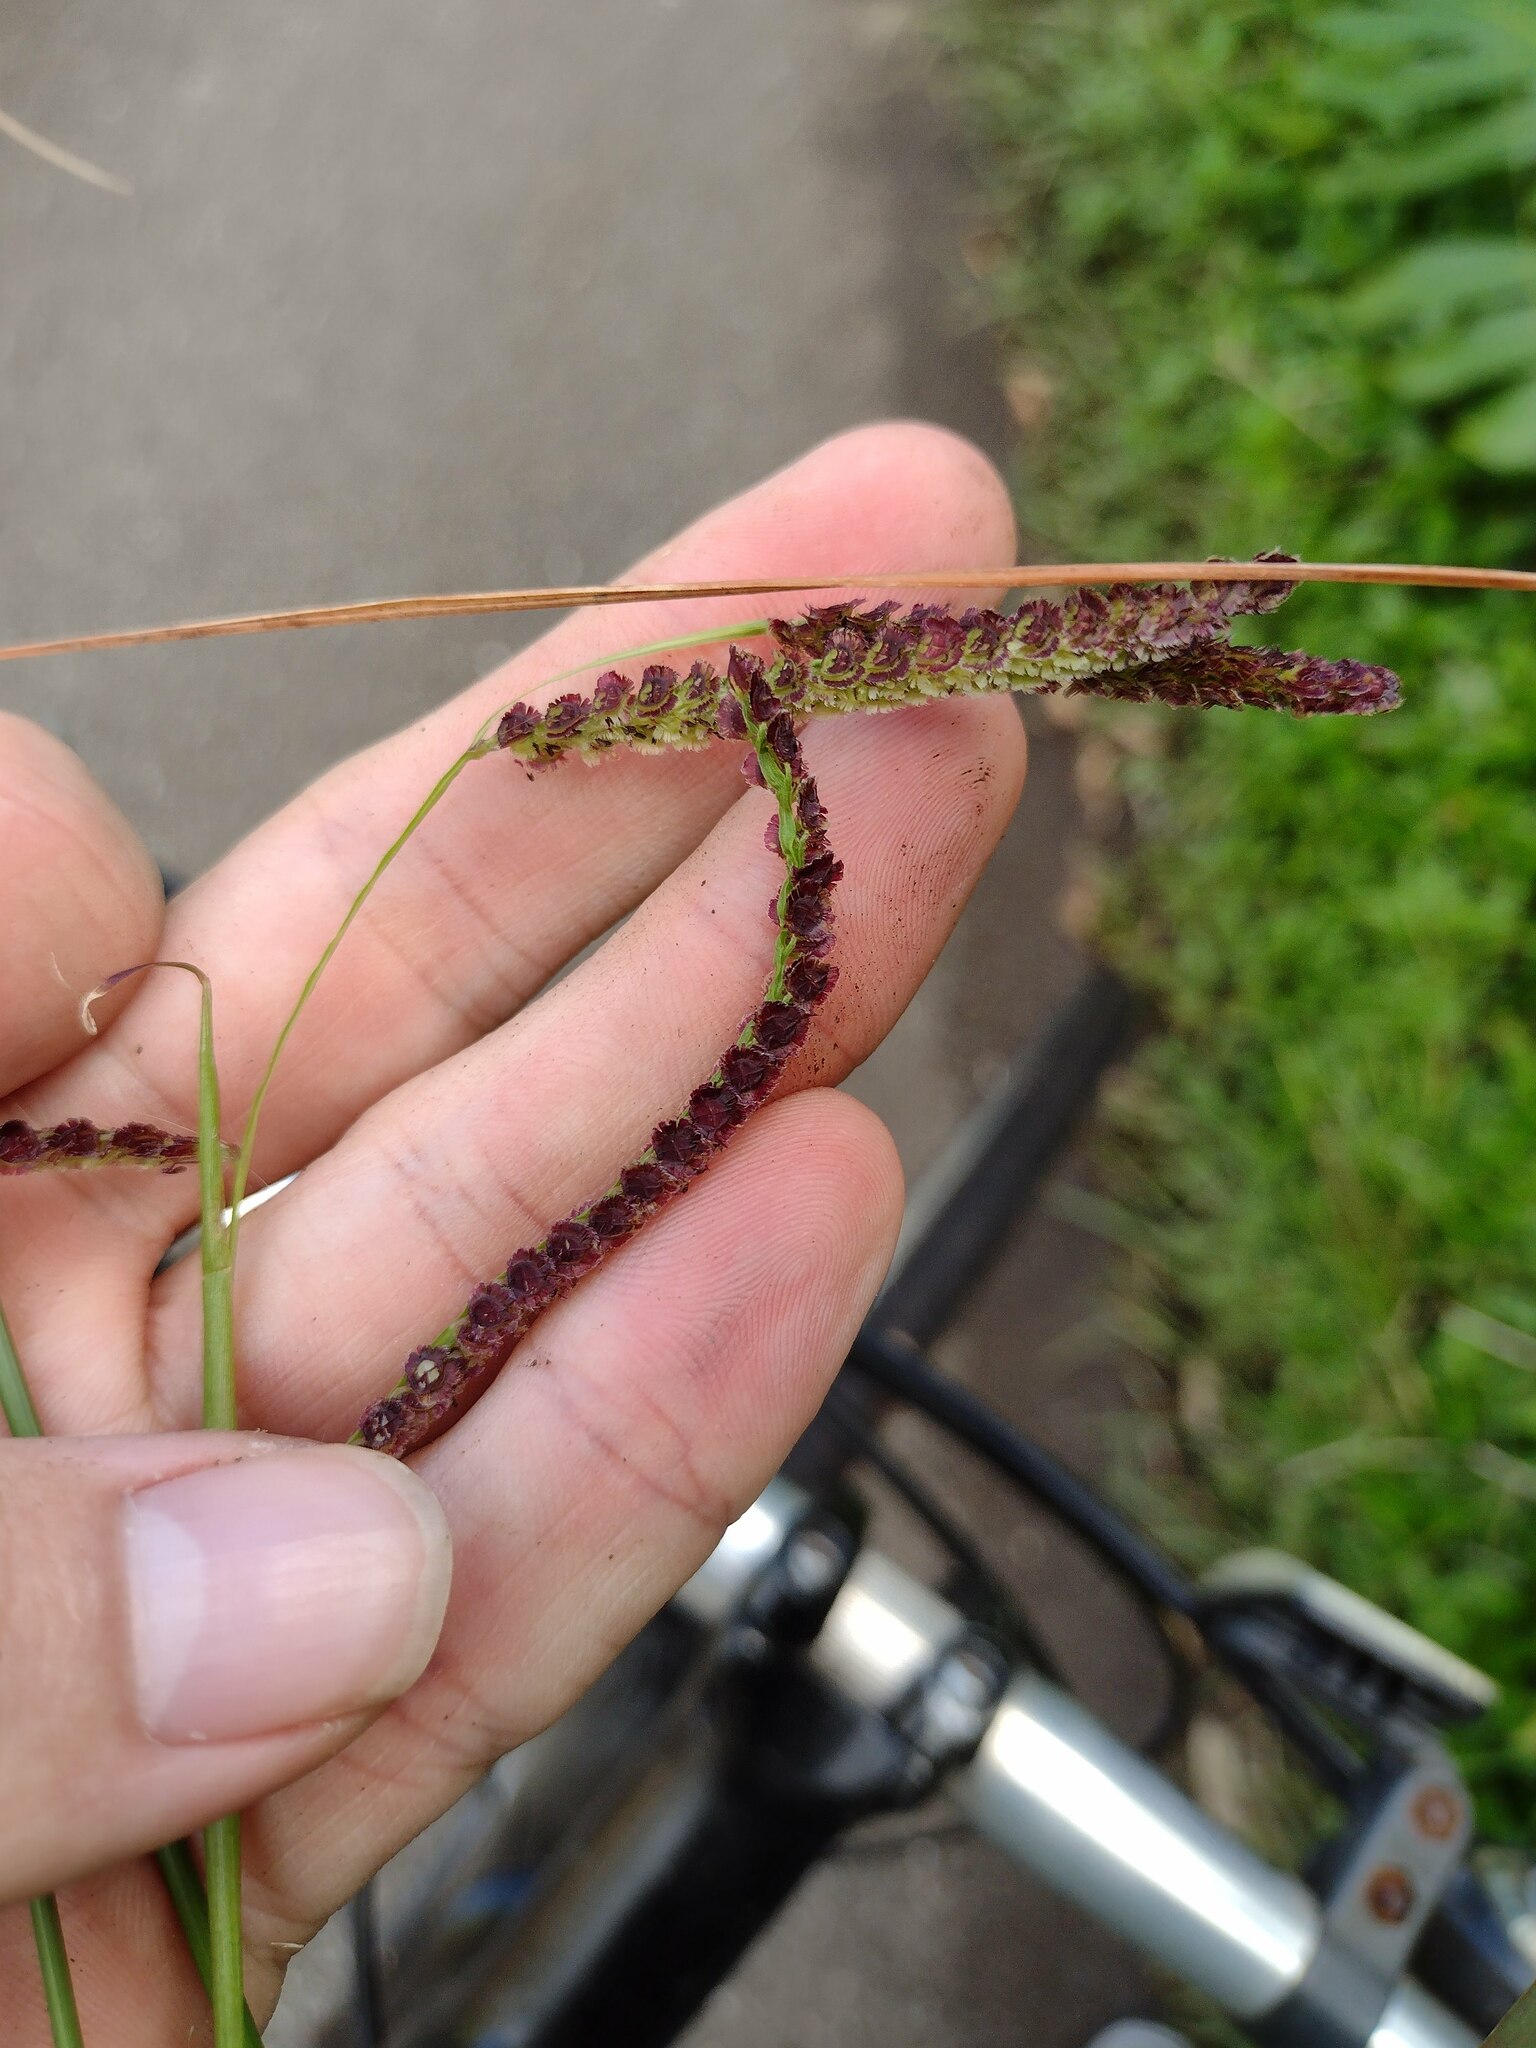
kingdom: Plantae
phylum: Tracheophyta
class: Liliopsida
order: Poales
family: Poaceae
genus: Paspalum
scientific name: Paspalum fimbriatum
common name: Panama crowngrass
